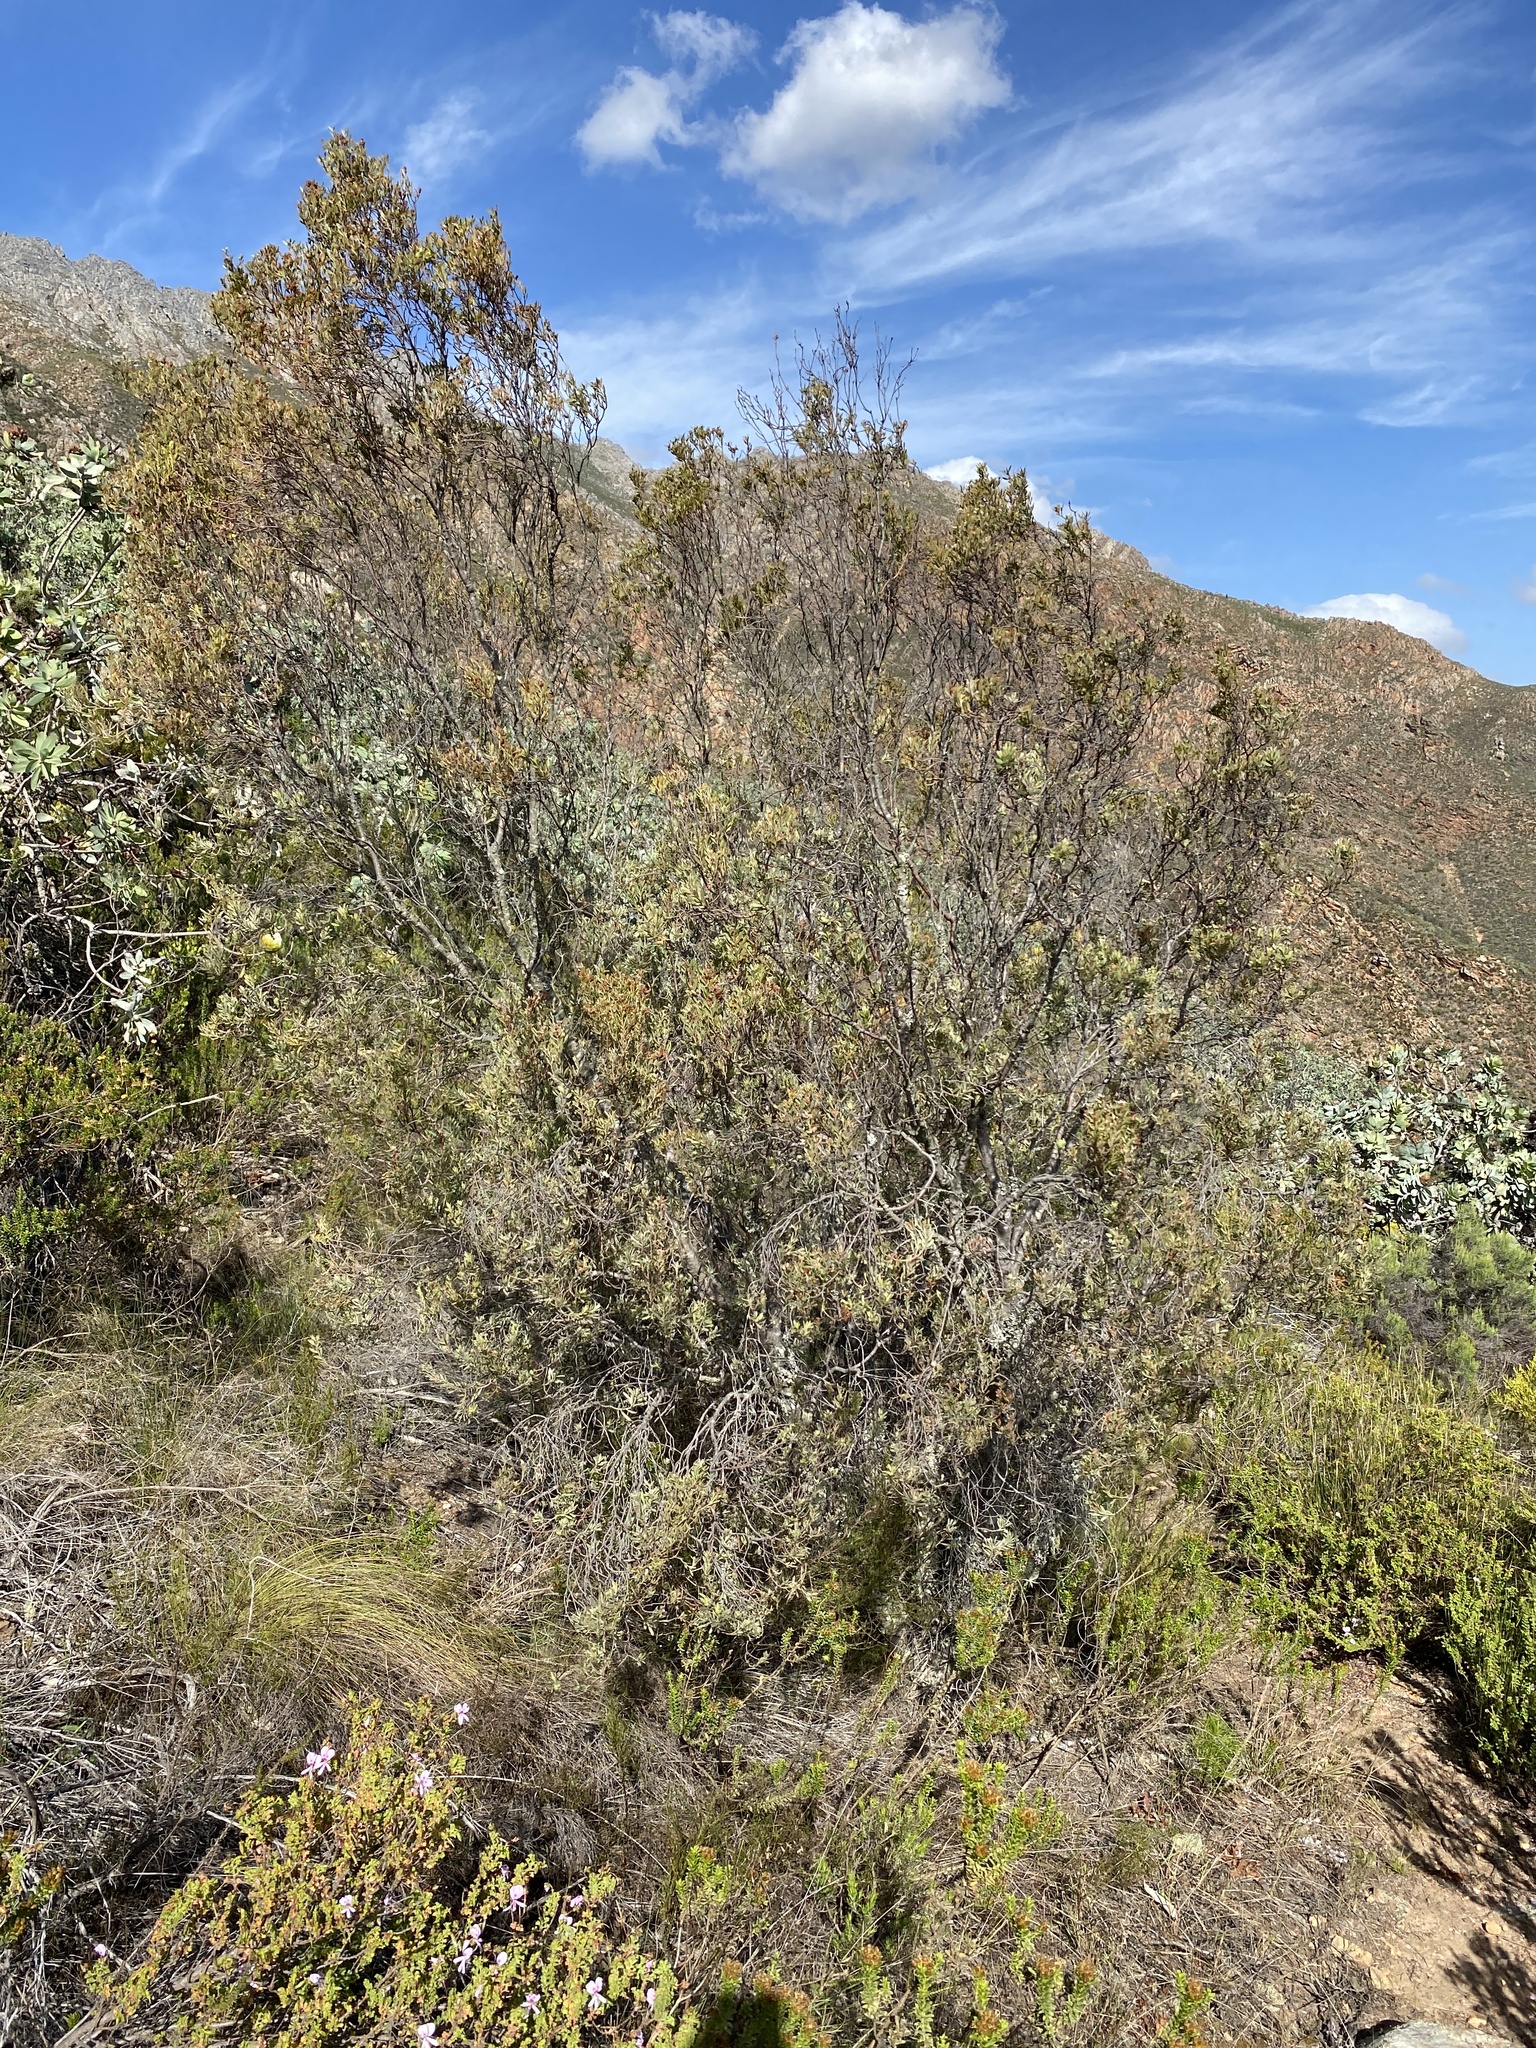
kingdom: Plantae
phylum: Tracheophyta
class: Magnoliopsida
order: Proteales
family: Proteaceae
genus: Leucadendron
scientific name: Leucadendron rubrum
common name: Spinning top
